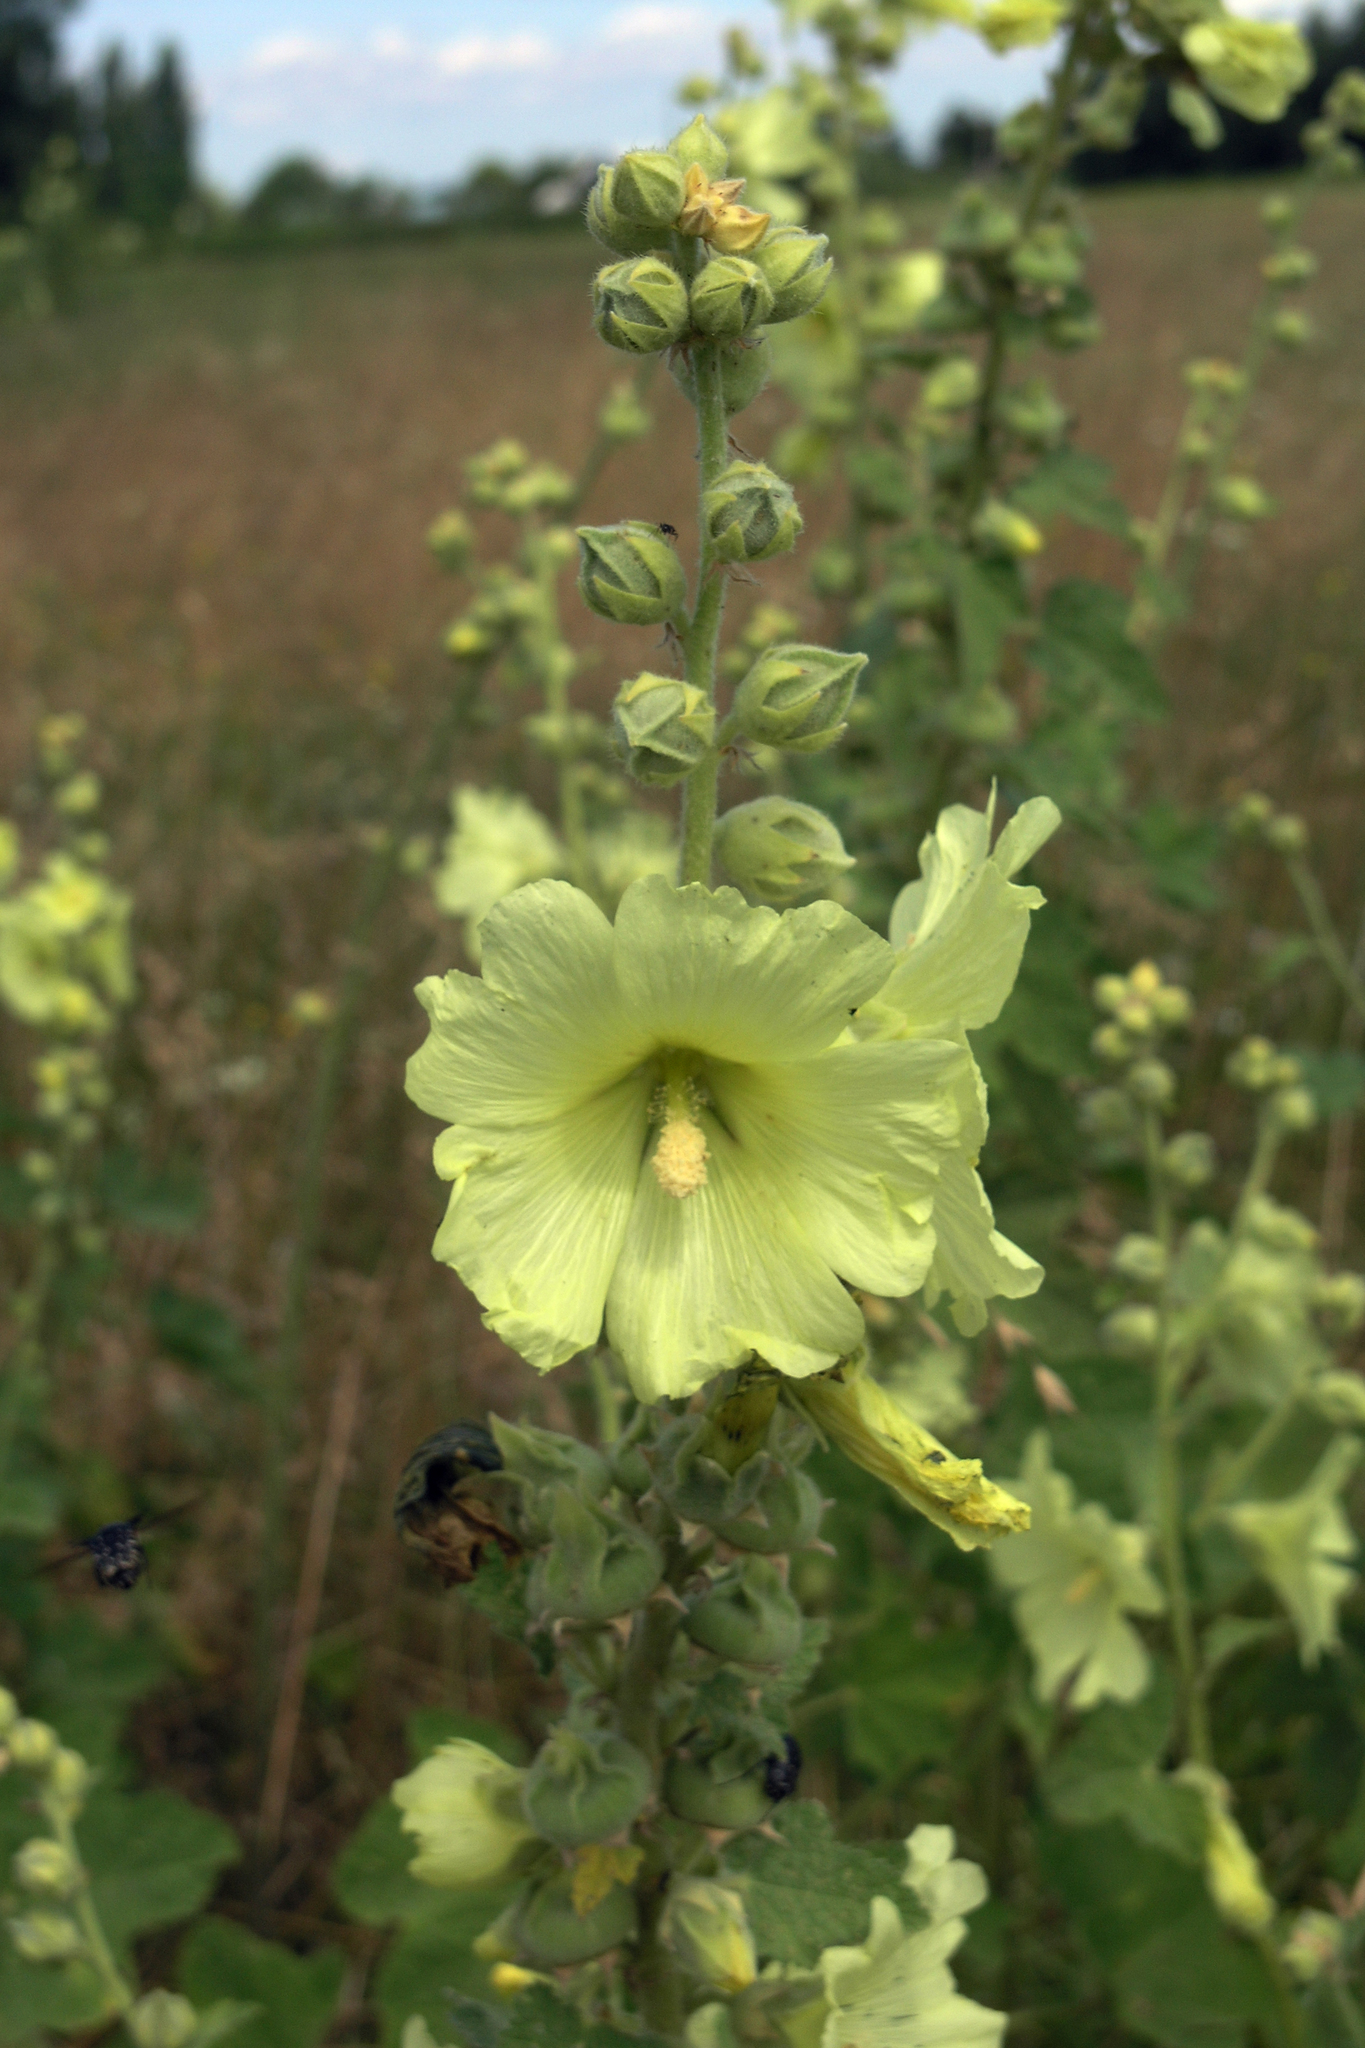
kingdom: Plantae
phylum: Tracheophyta
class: Magnoliopsida
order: Malvales
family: Malvaceae
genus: Alcea
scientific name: Alcea rugosa
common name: Russian hollyhock
